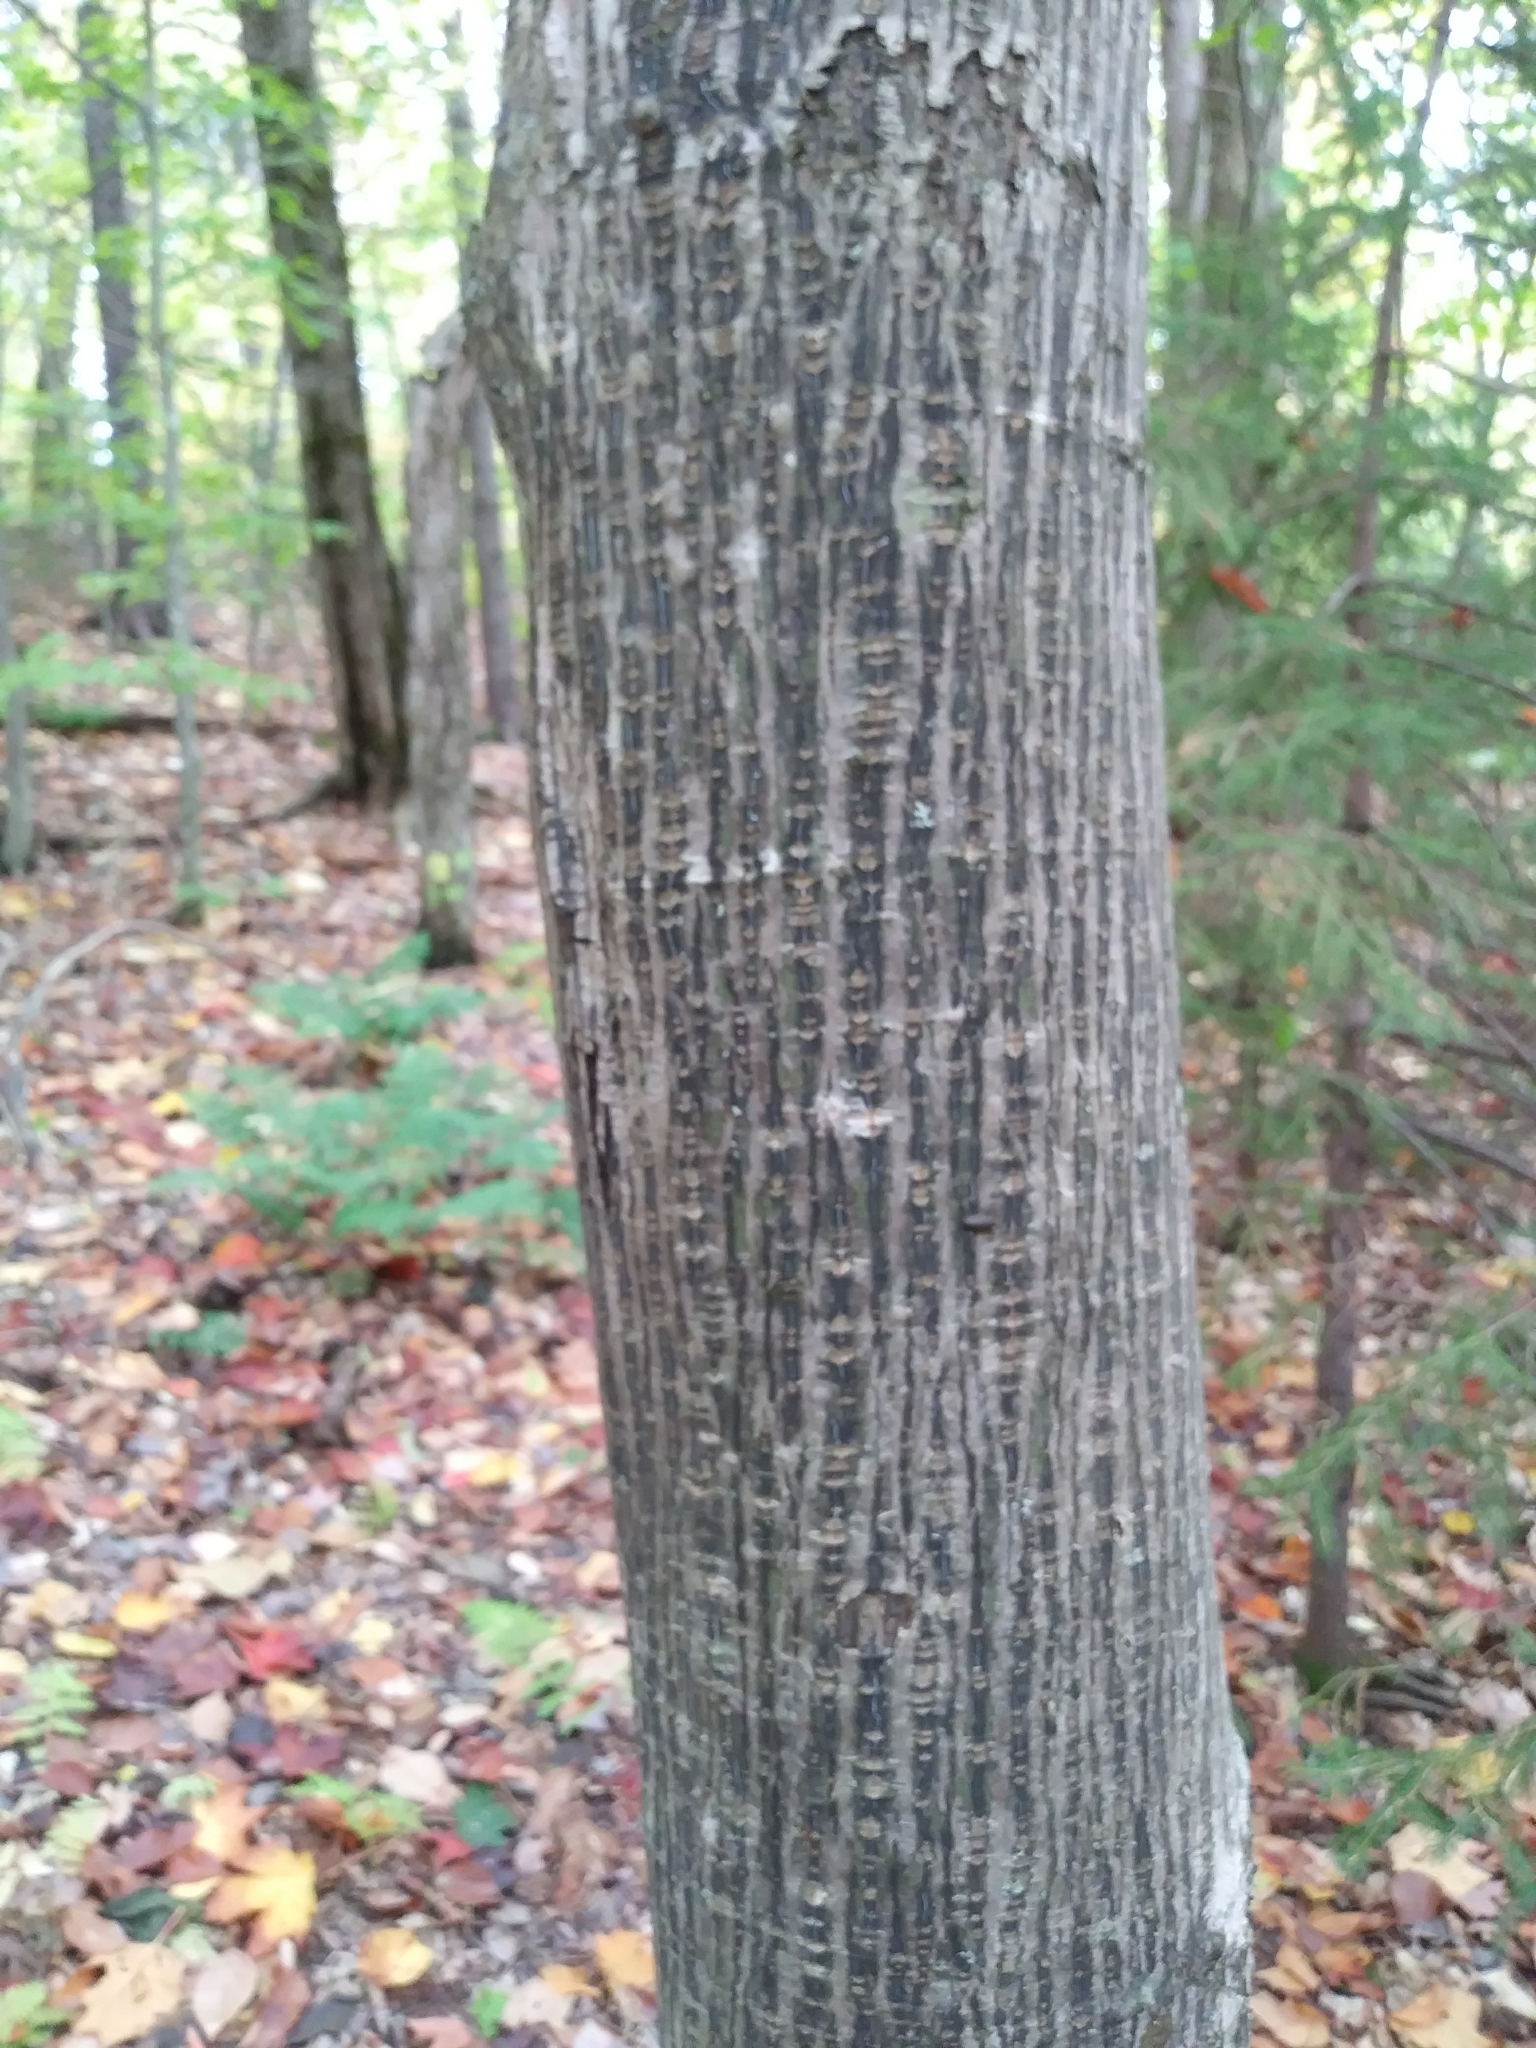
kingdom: Plantae
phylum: Tracheophyta
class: Magnoliopsida
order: Sapindales
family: Sapindaceae
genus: Acer
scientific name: Acer pensylvanicum
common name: Moosewood
